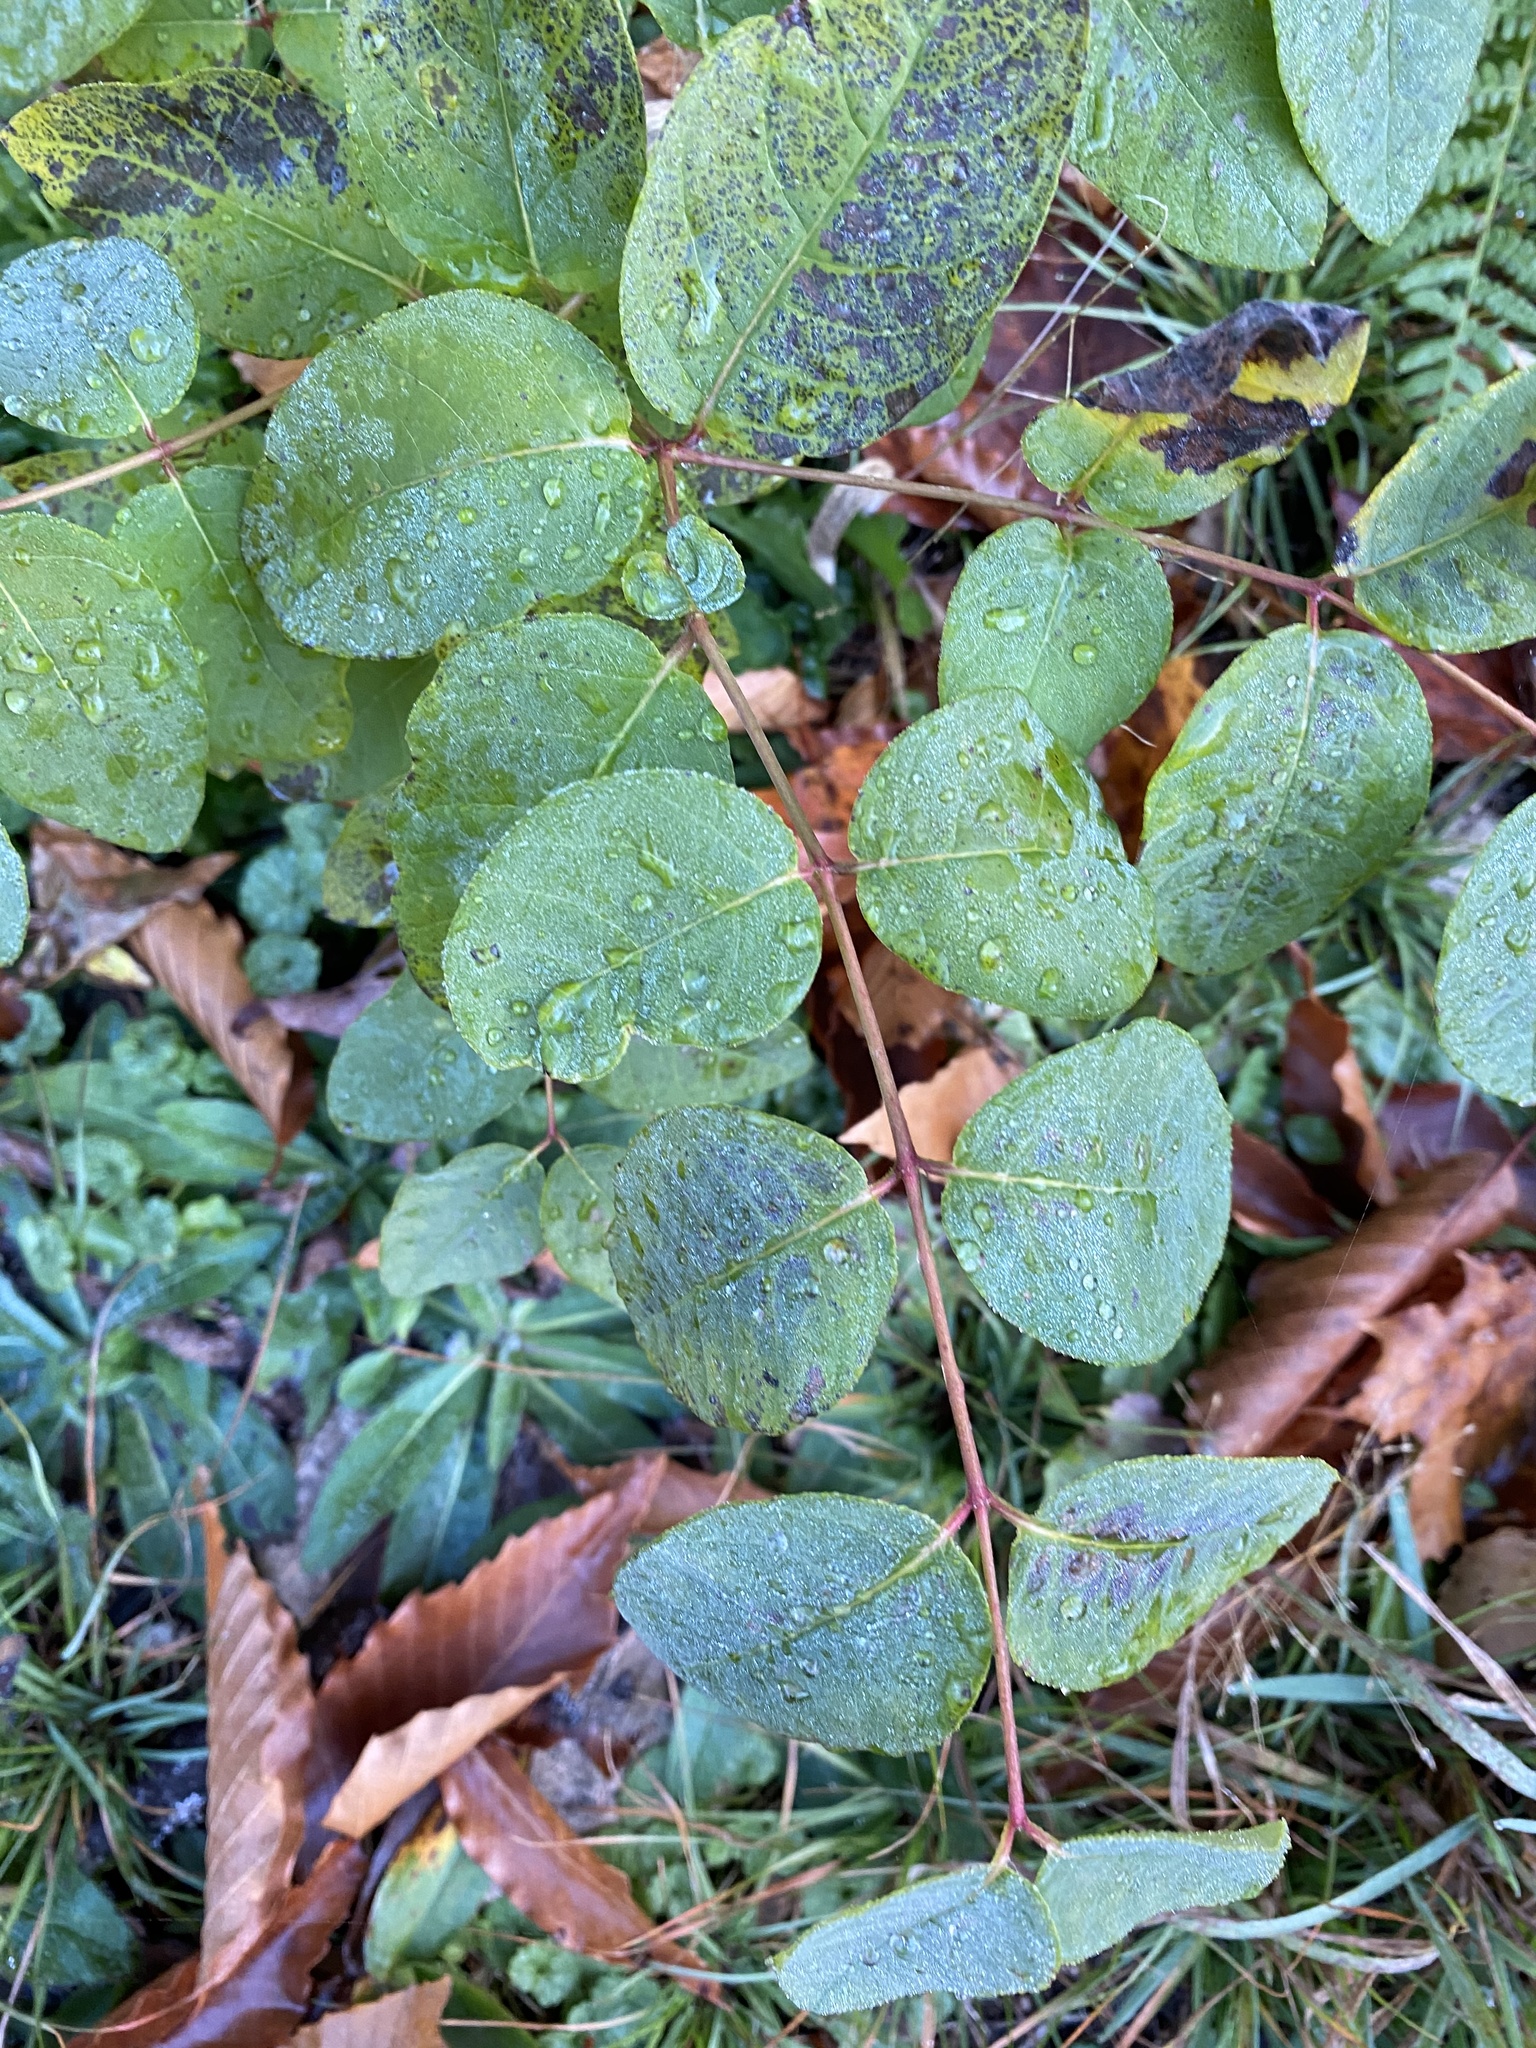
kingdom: Plantae
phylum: Tracheophyta
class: Magnoliopsida
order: Gentianales
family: Apocynaceae
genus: Apocynum
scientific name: Apocynum androsaemifolium
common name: Spreading dogbane
